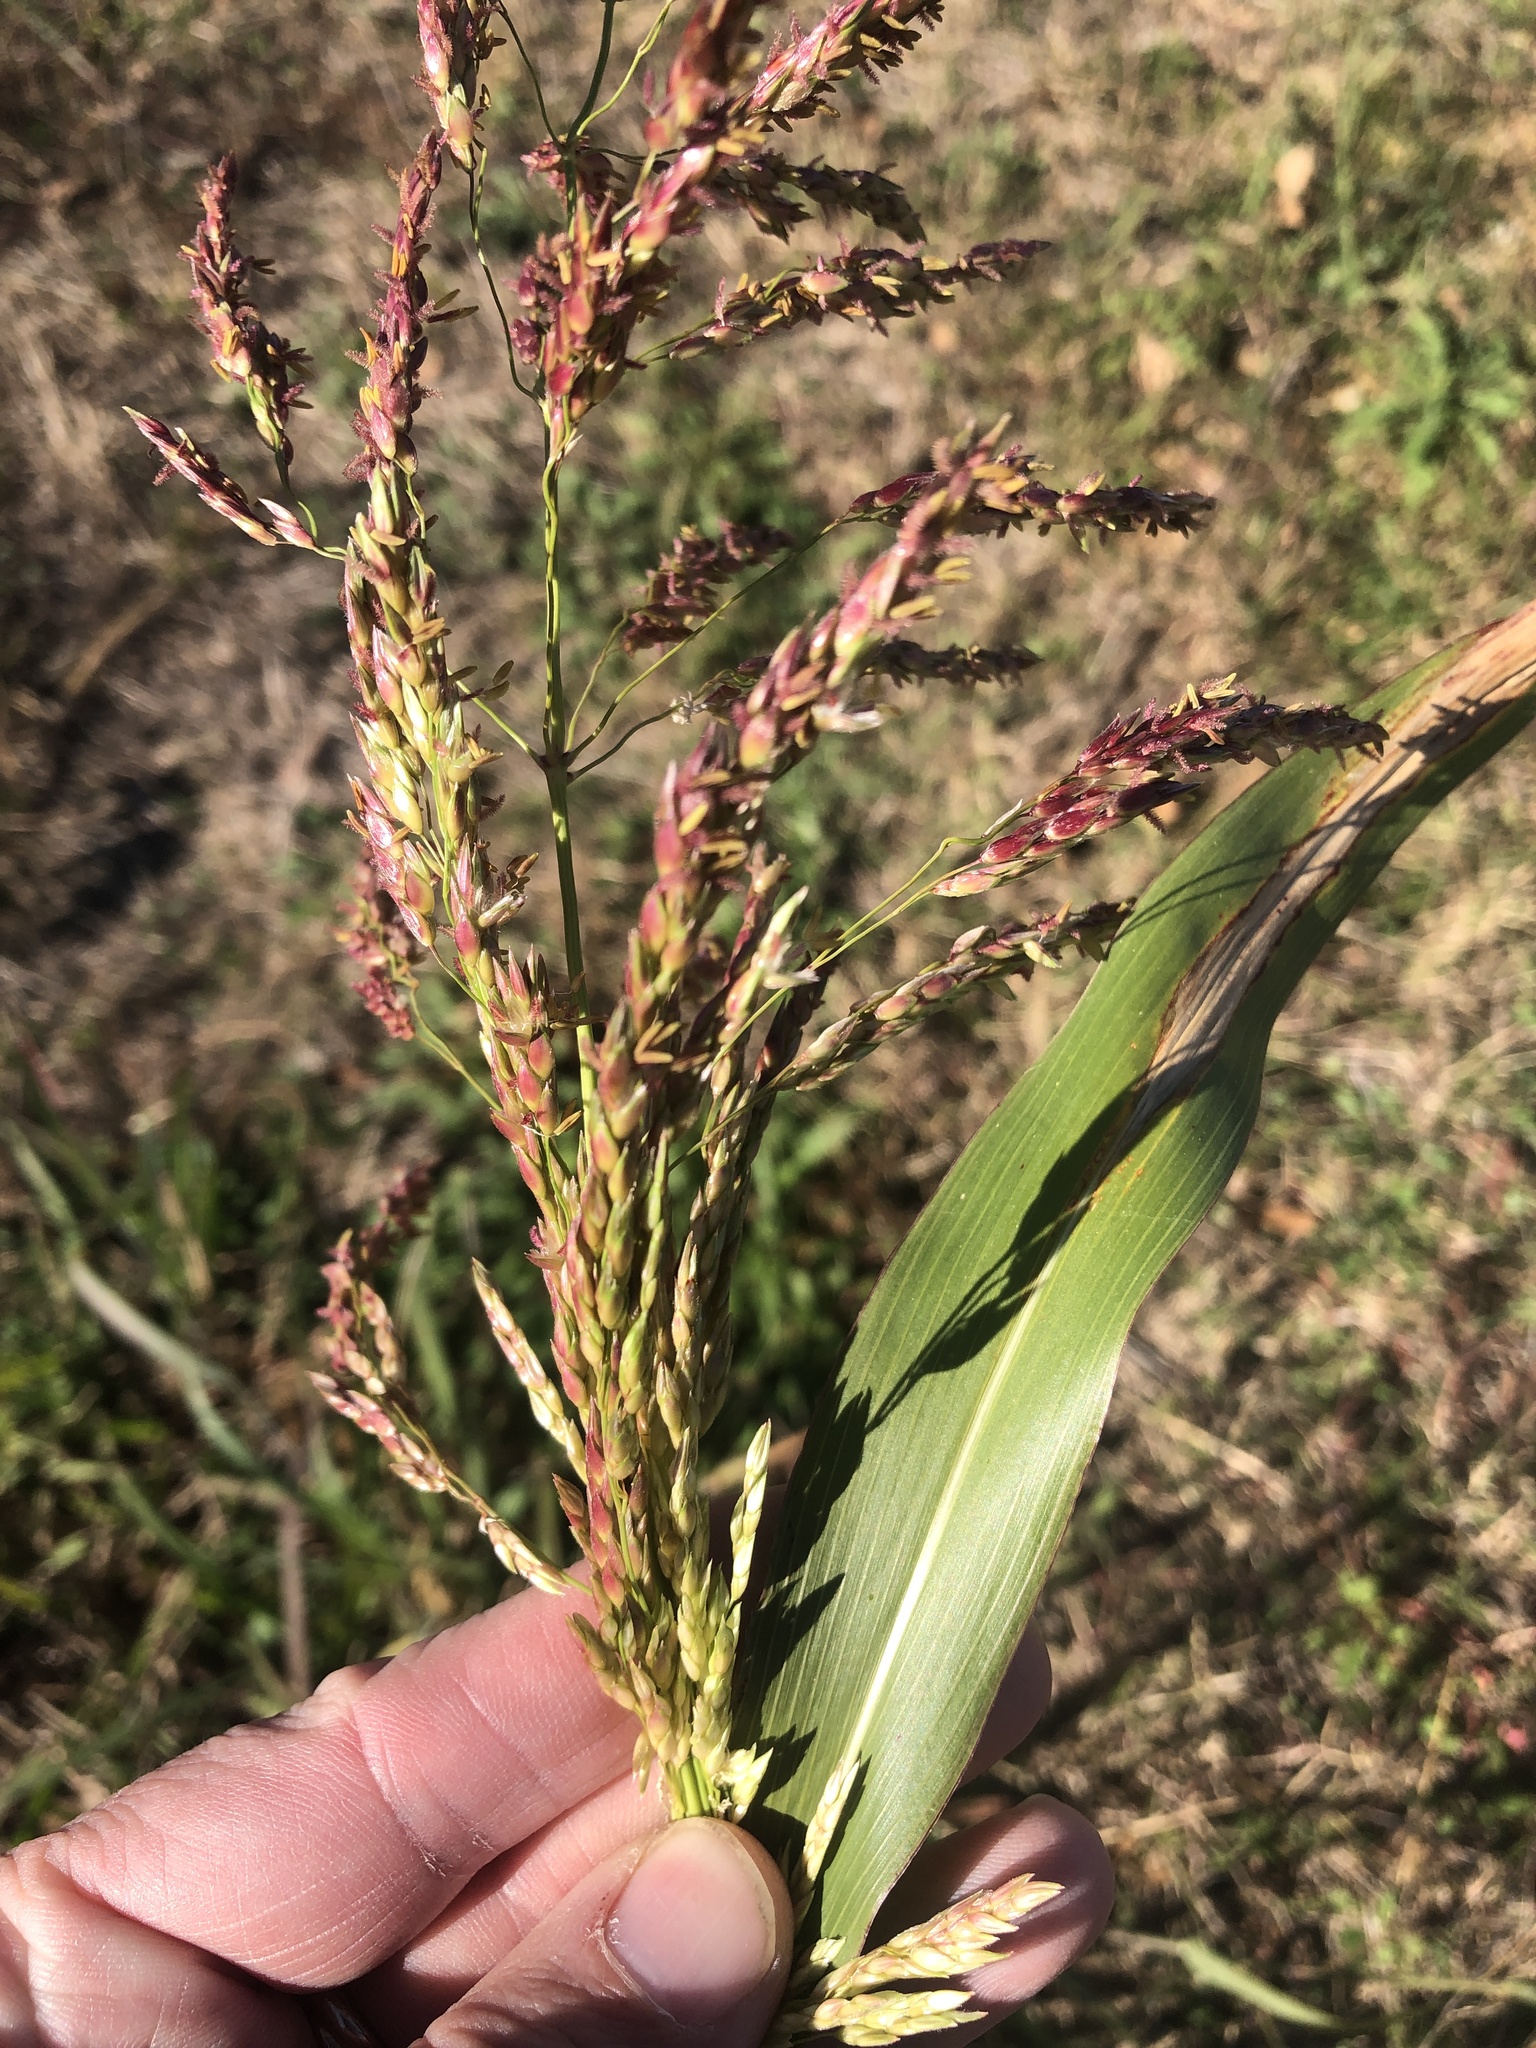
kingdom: Plantae
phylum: Tracheophyta
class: Liliopsida
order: Poales
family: Poaceae
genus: Sorghum
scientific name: Sorghum halepense
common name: Johnson-grass
